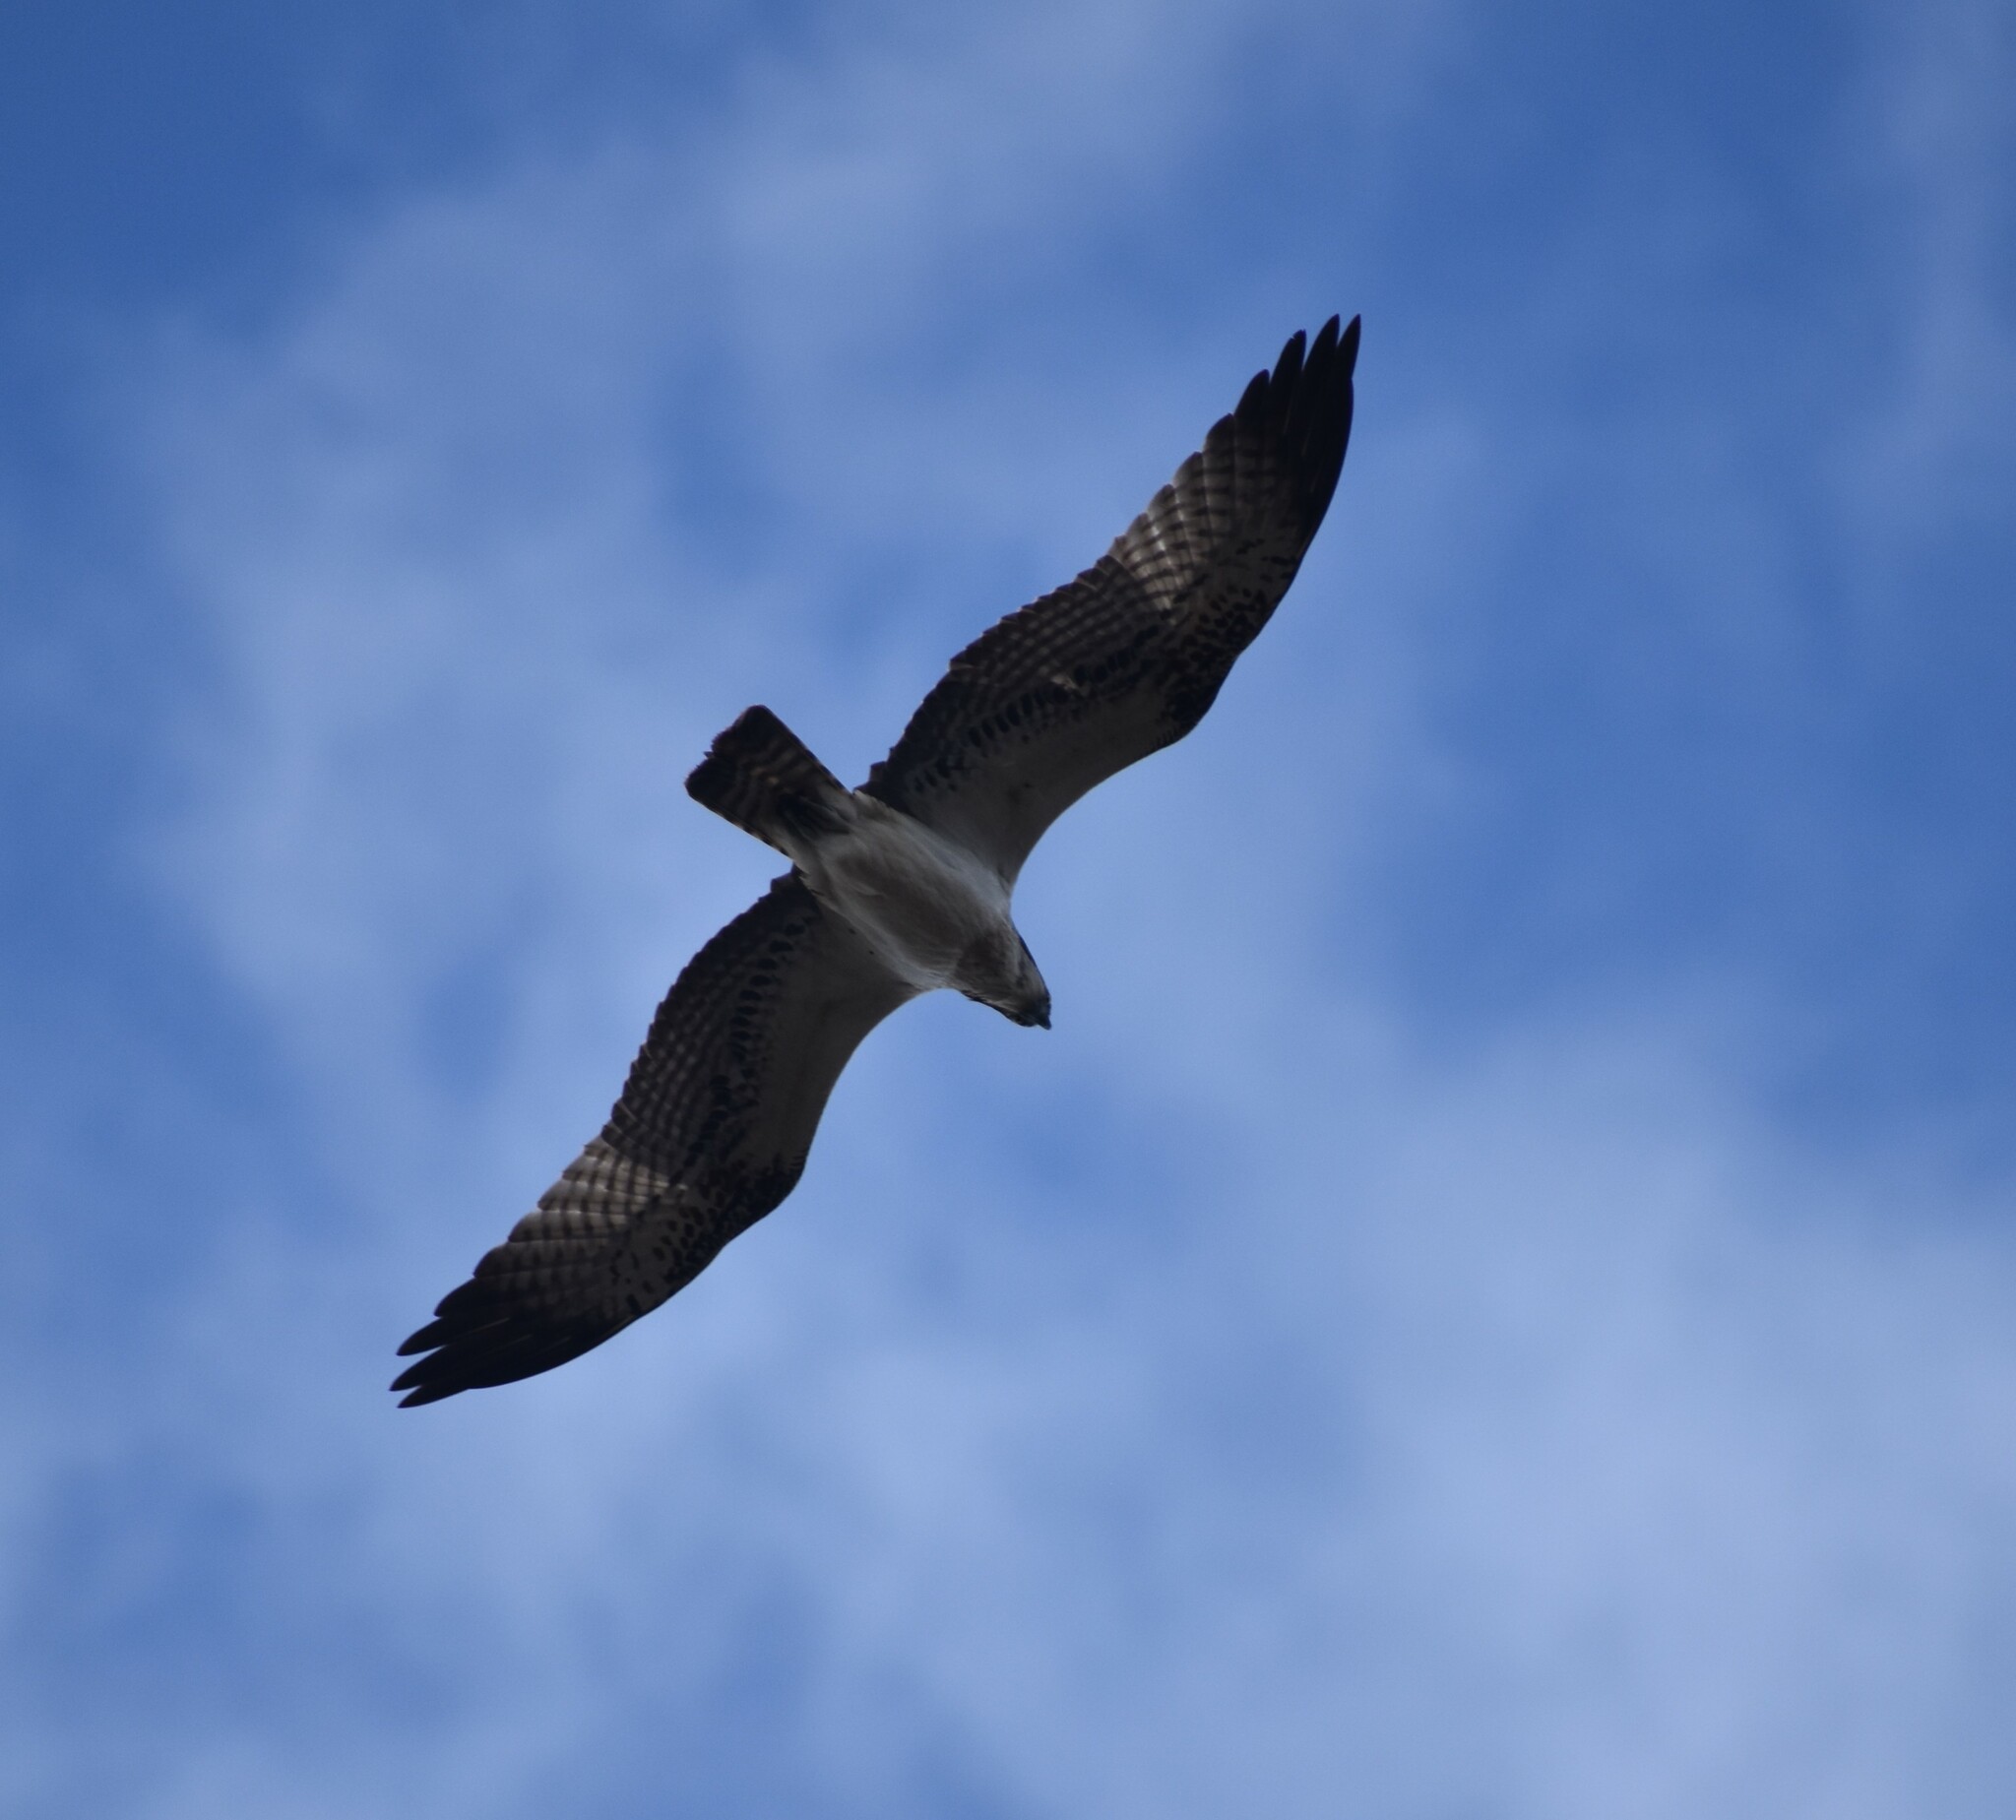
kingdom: Animalia
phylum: Chordata
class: Aves
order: Accipitriformes
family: Pandionidae
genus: Pandion
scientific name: Pandion haliaetus
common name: Osprey
